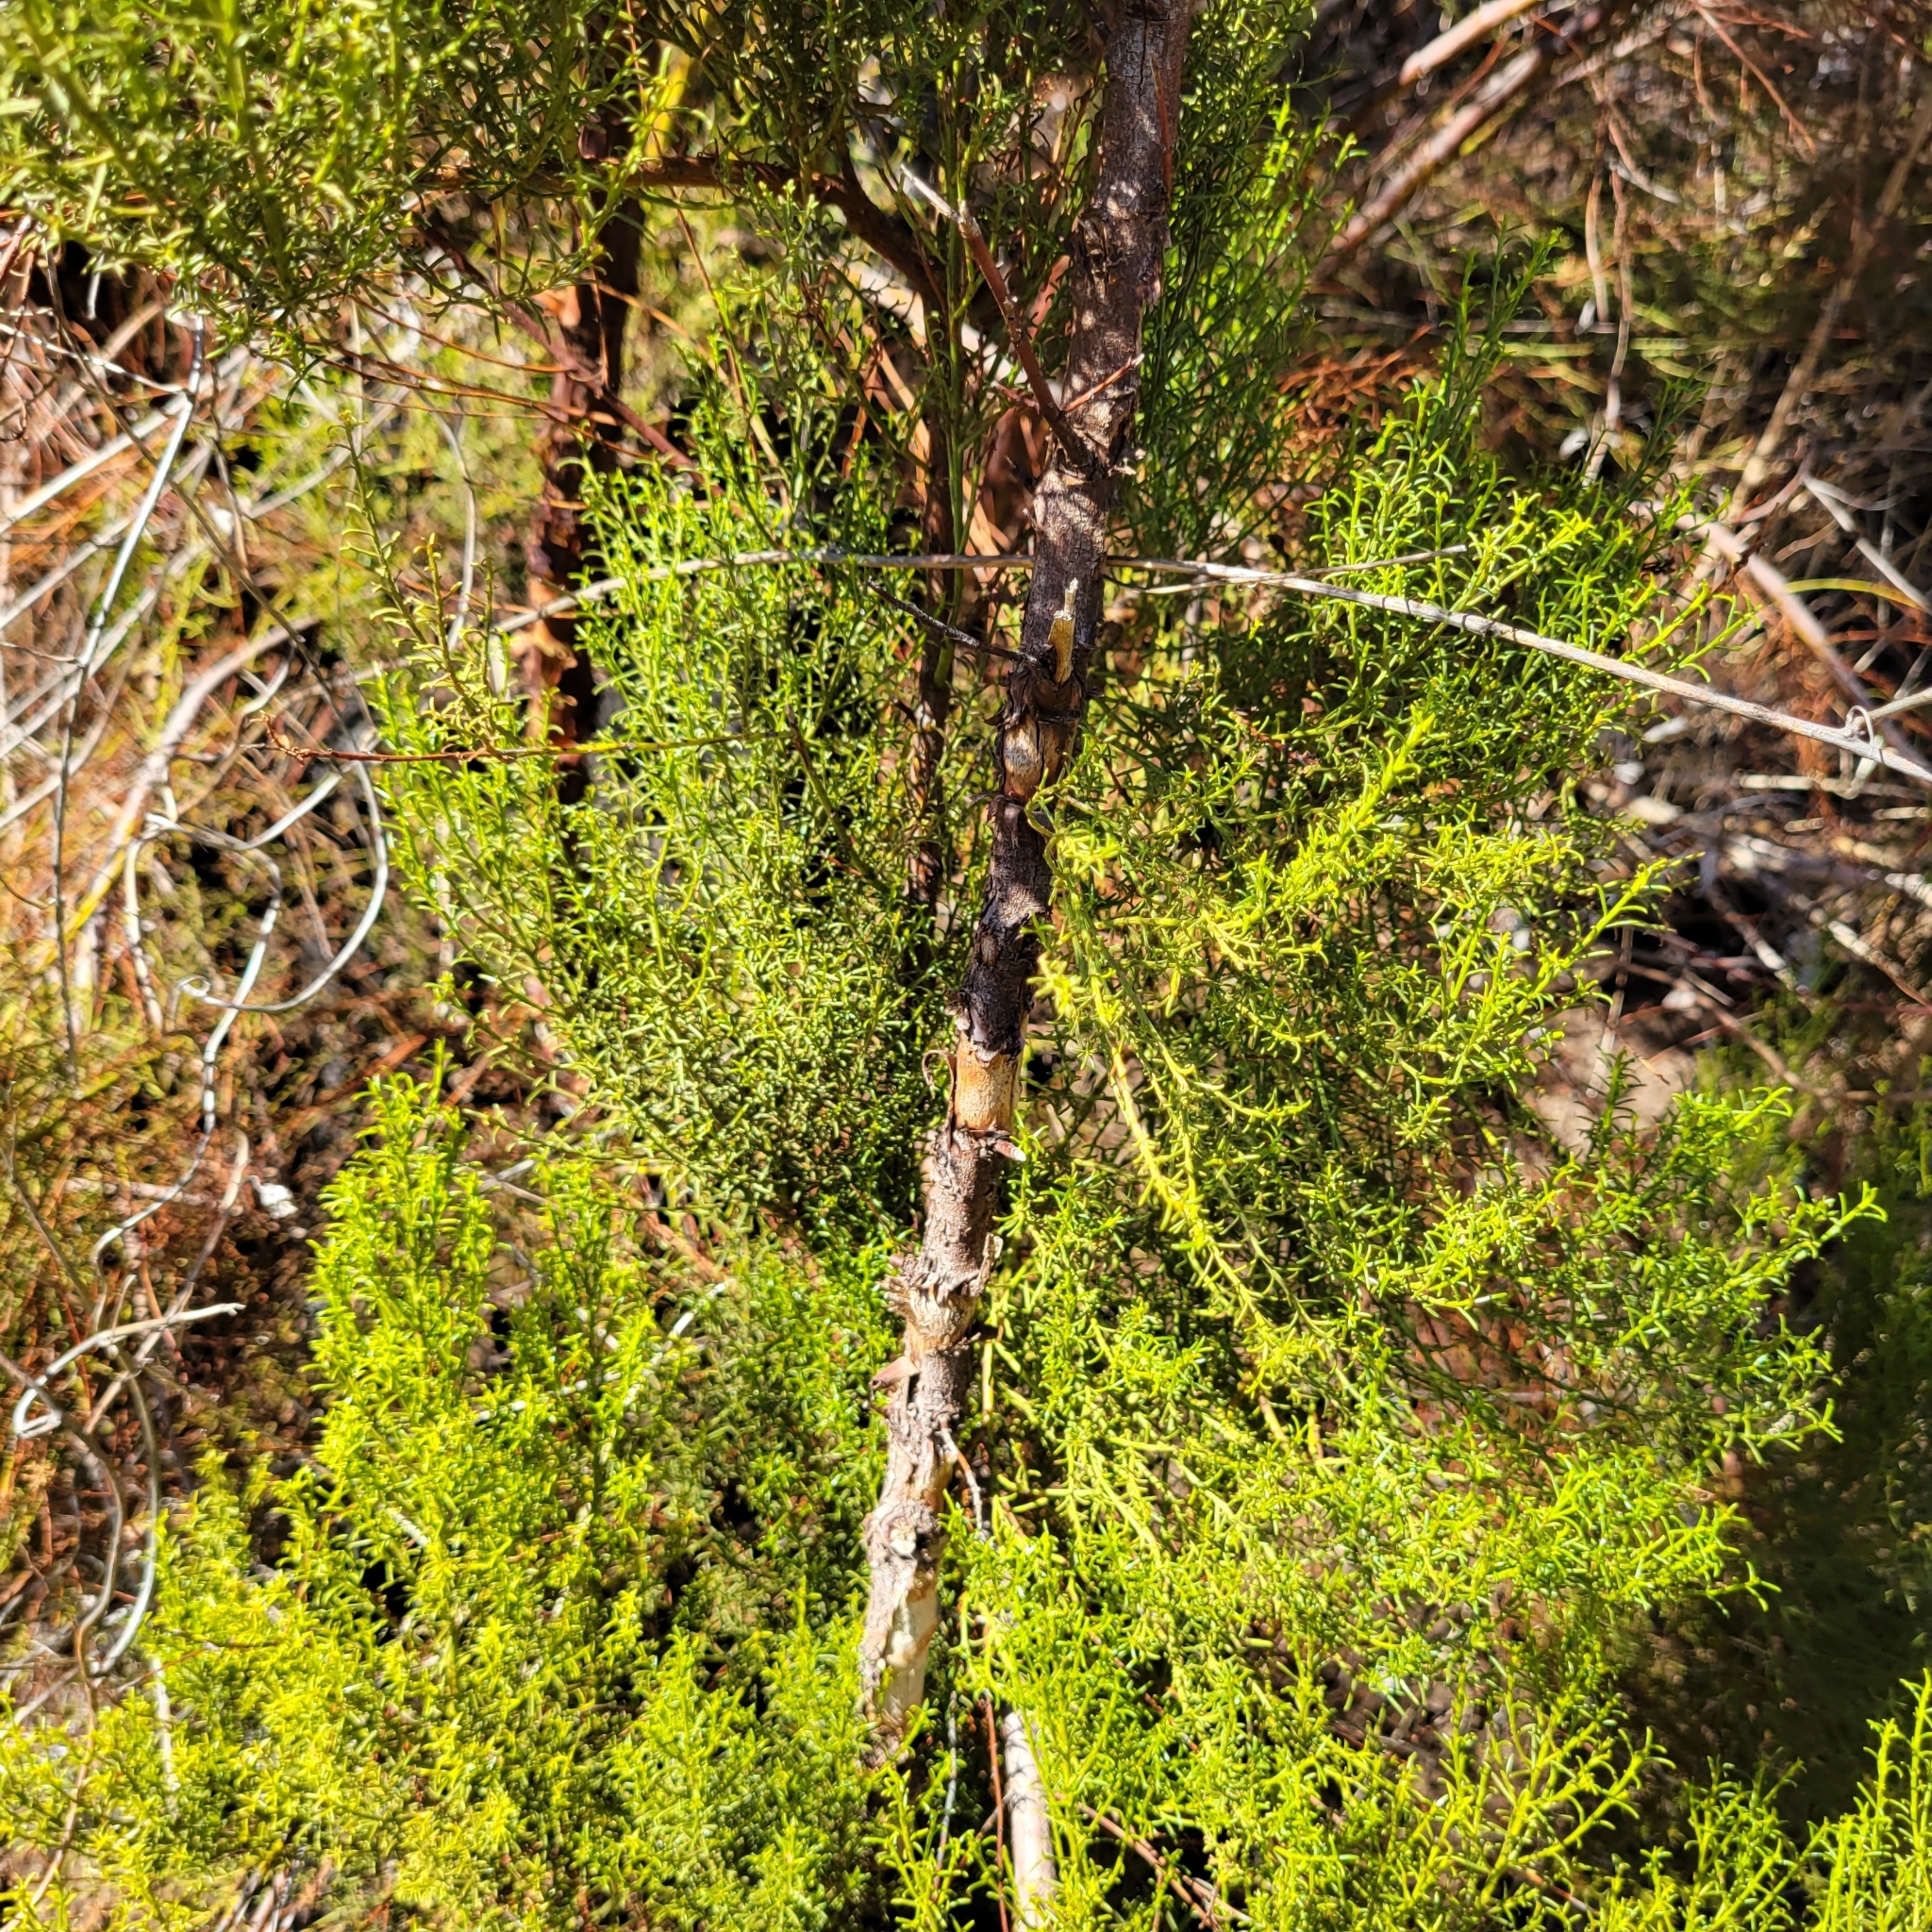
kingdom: Plantae
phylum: Tracheophyta
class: Magnoliopsida
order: Rosales
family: Rosaceae
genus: Adenostoma
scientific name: Adenostoma sparsifolium
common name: Red shank
